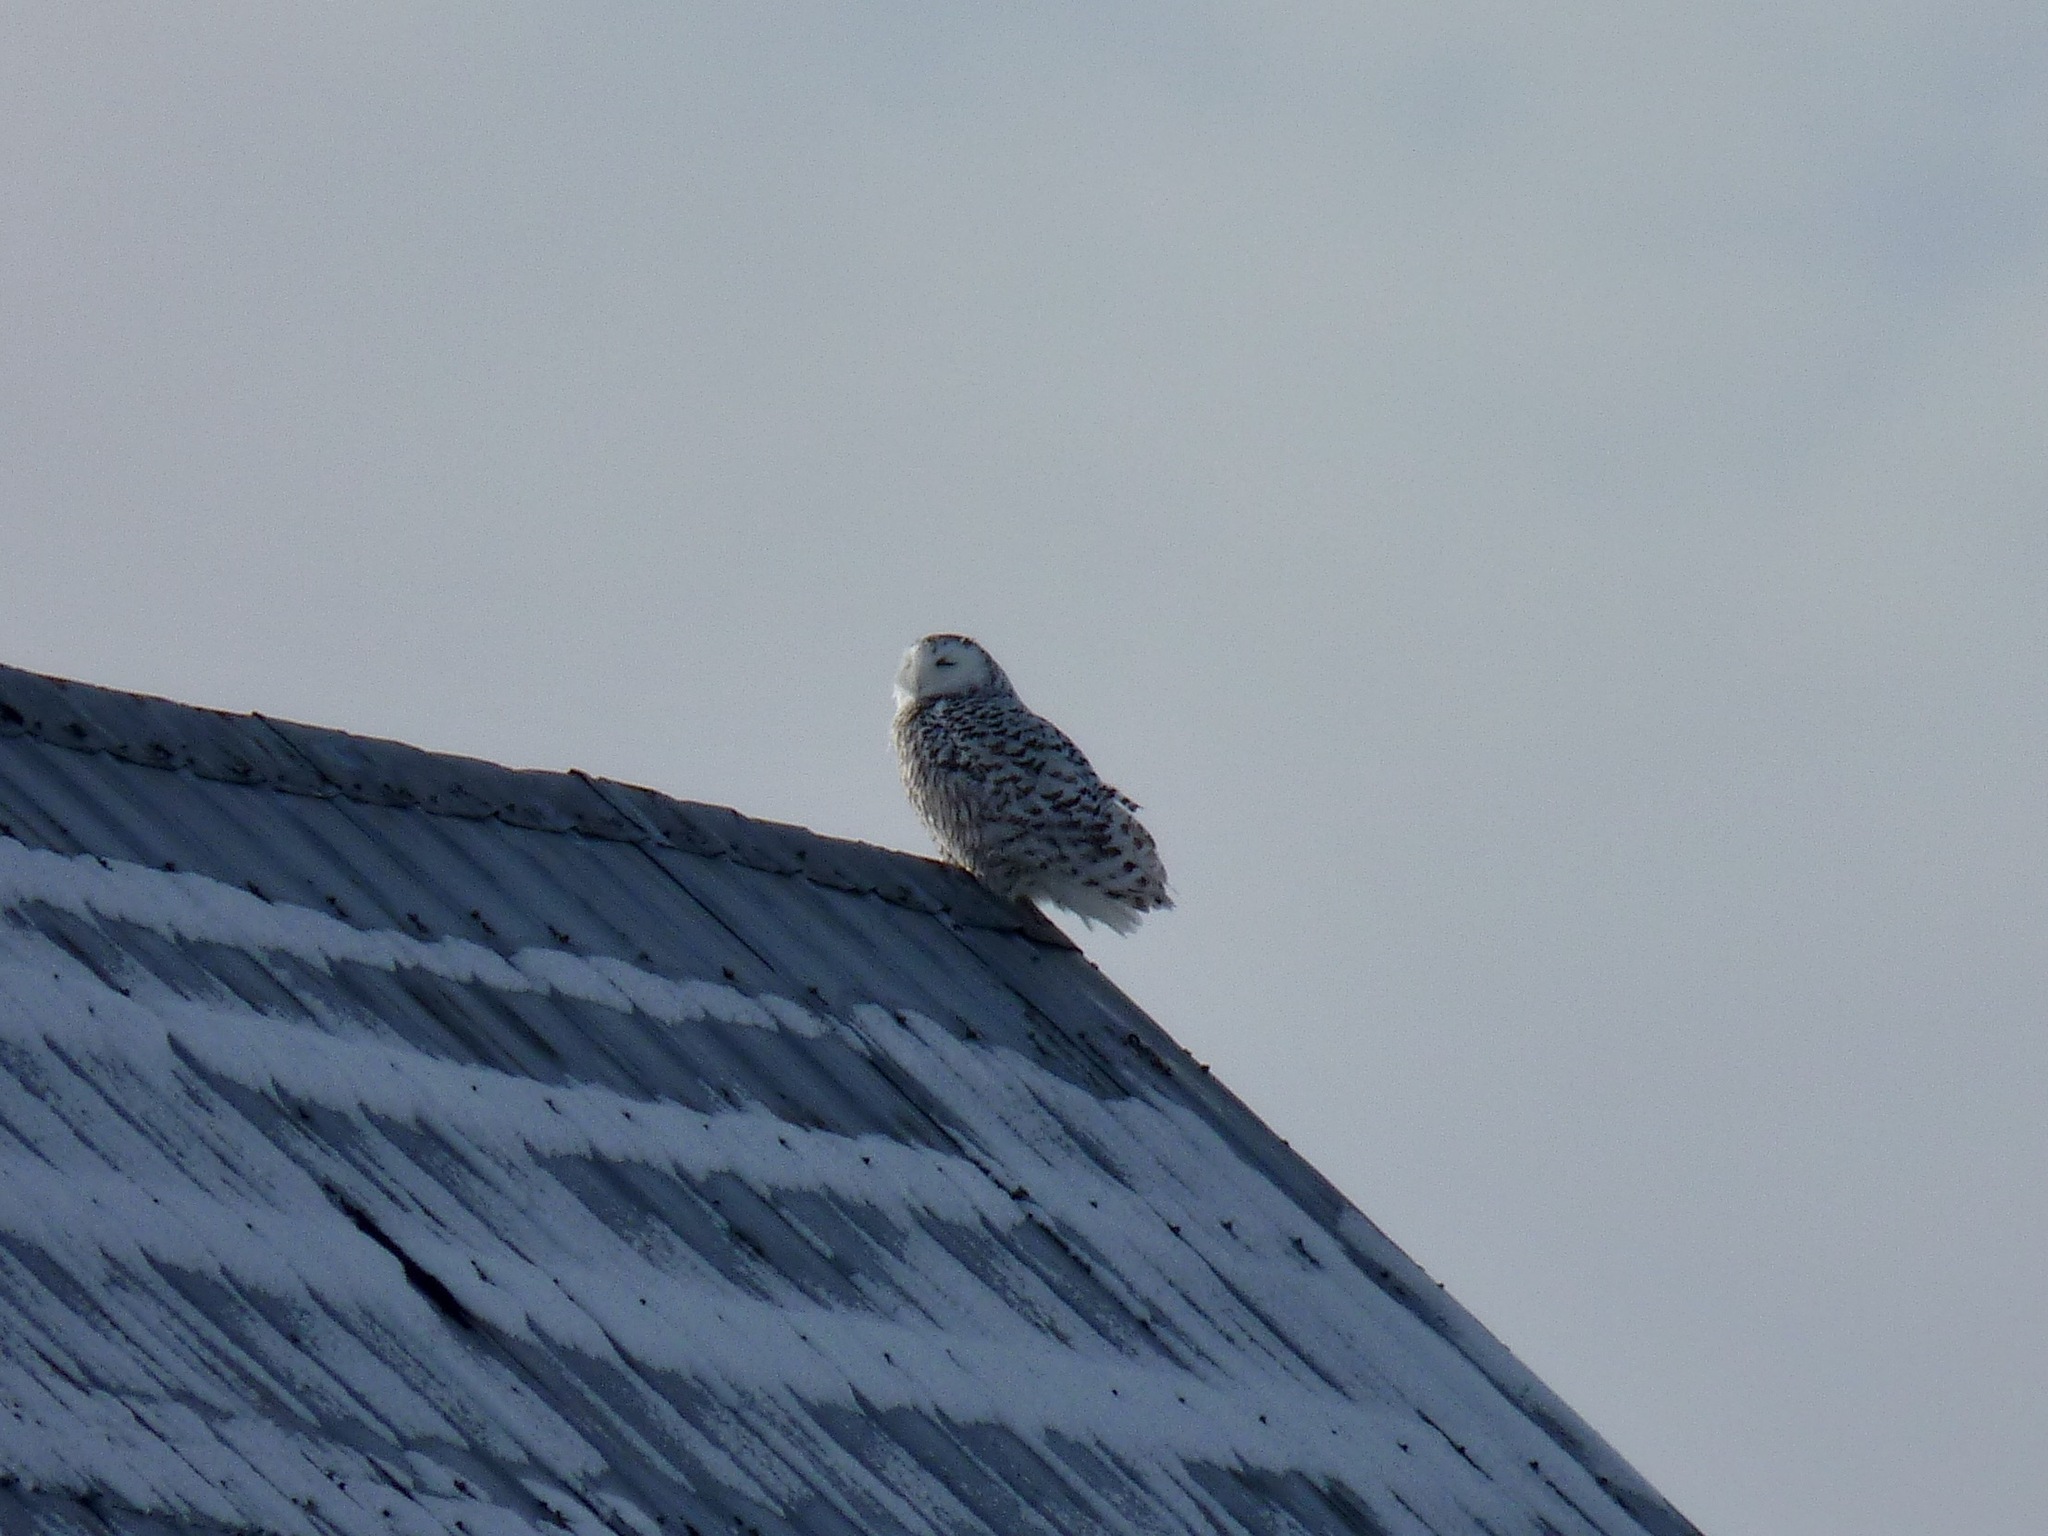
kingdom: Animalia
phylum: Chordata
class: Aves
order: Strigiformes
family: Strigidae
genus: Bubo
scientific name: Bubo scandiacus
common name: Snowy owl
